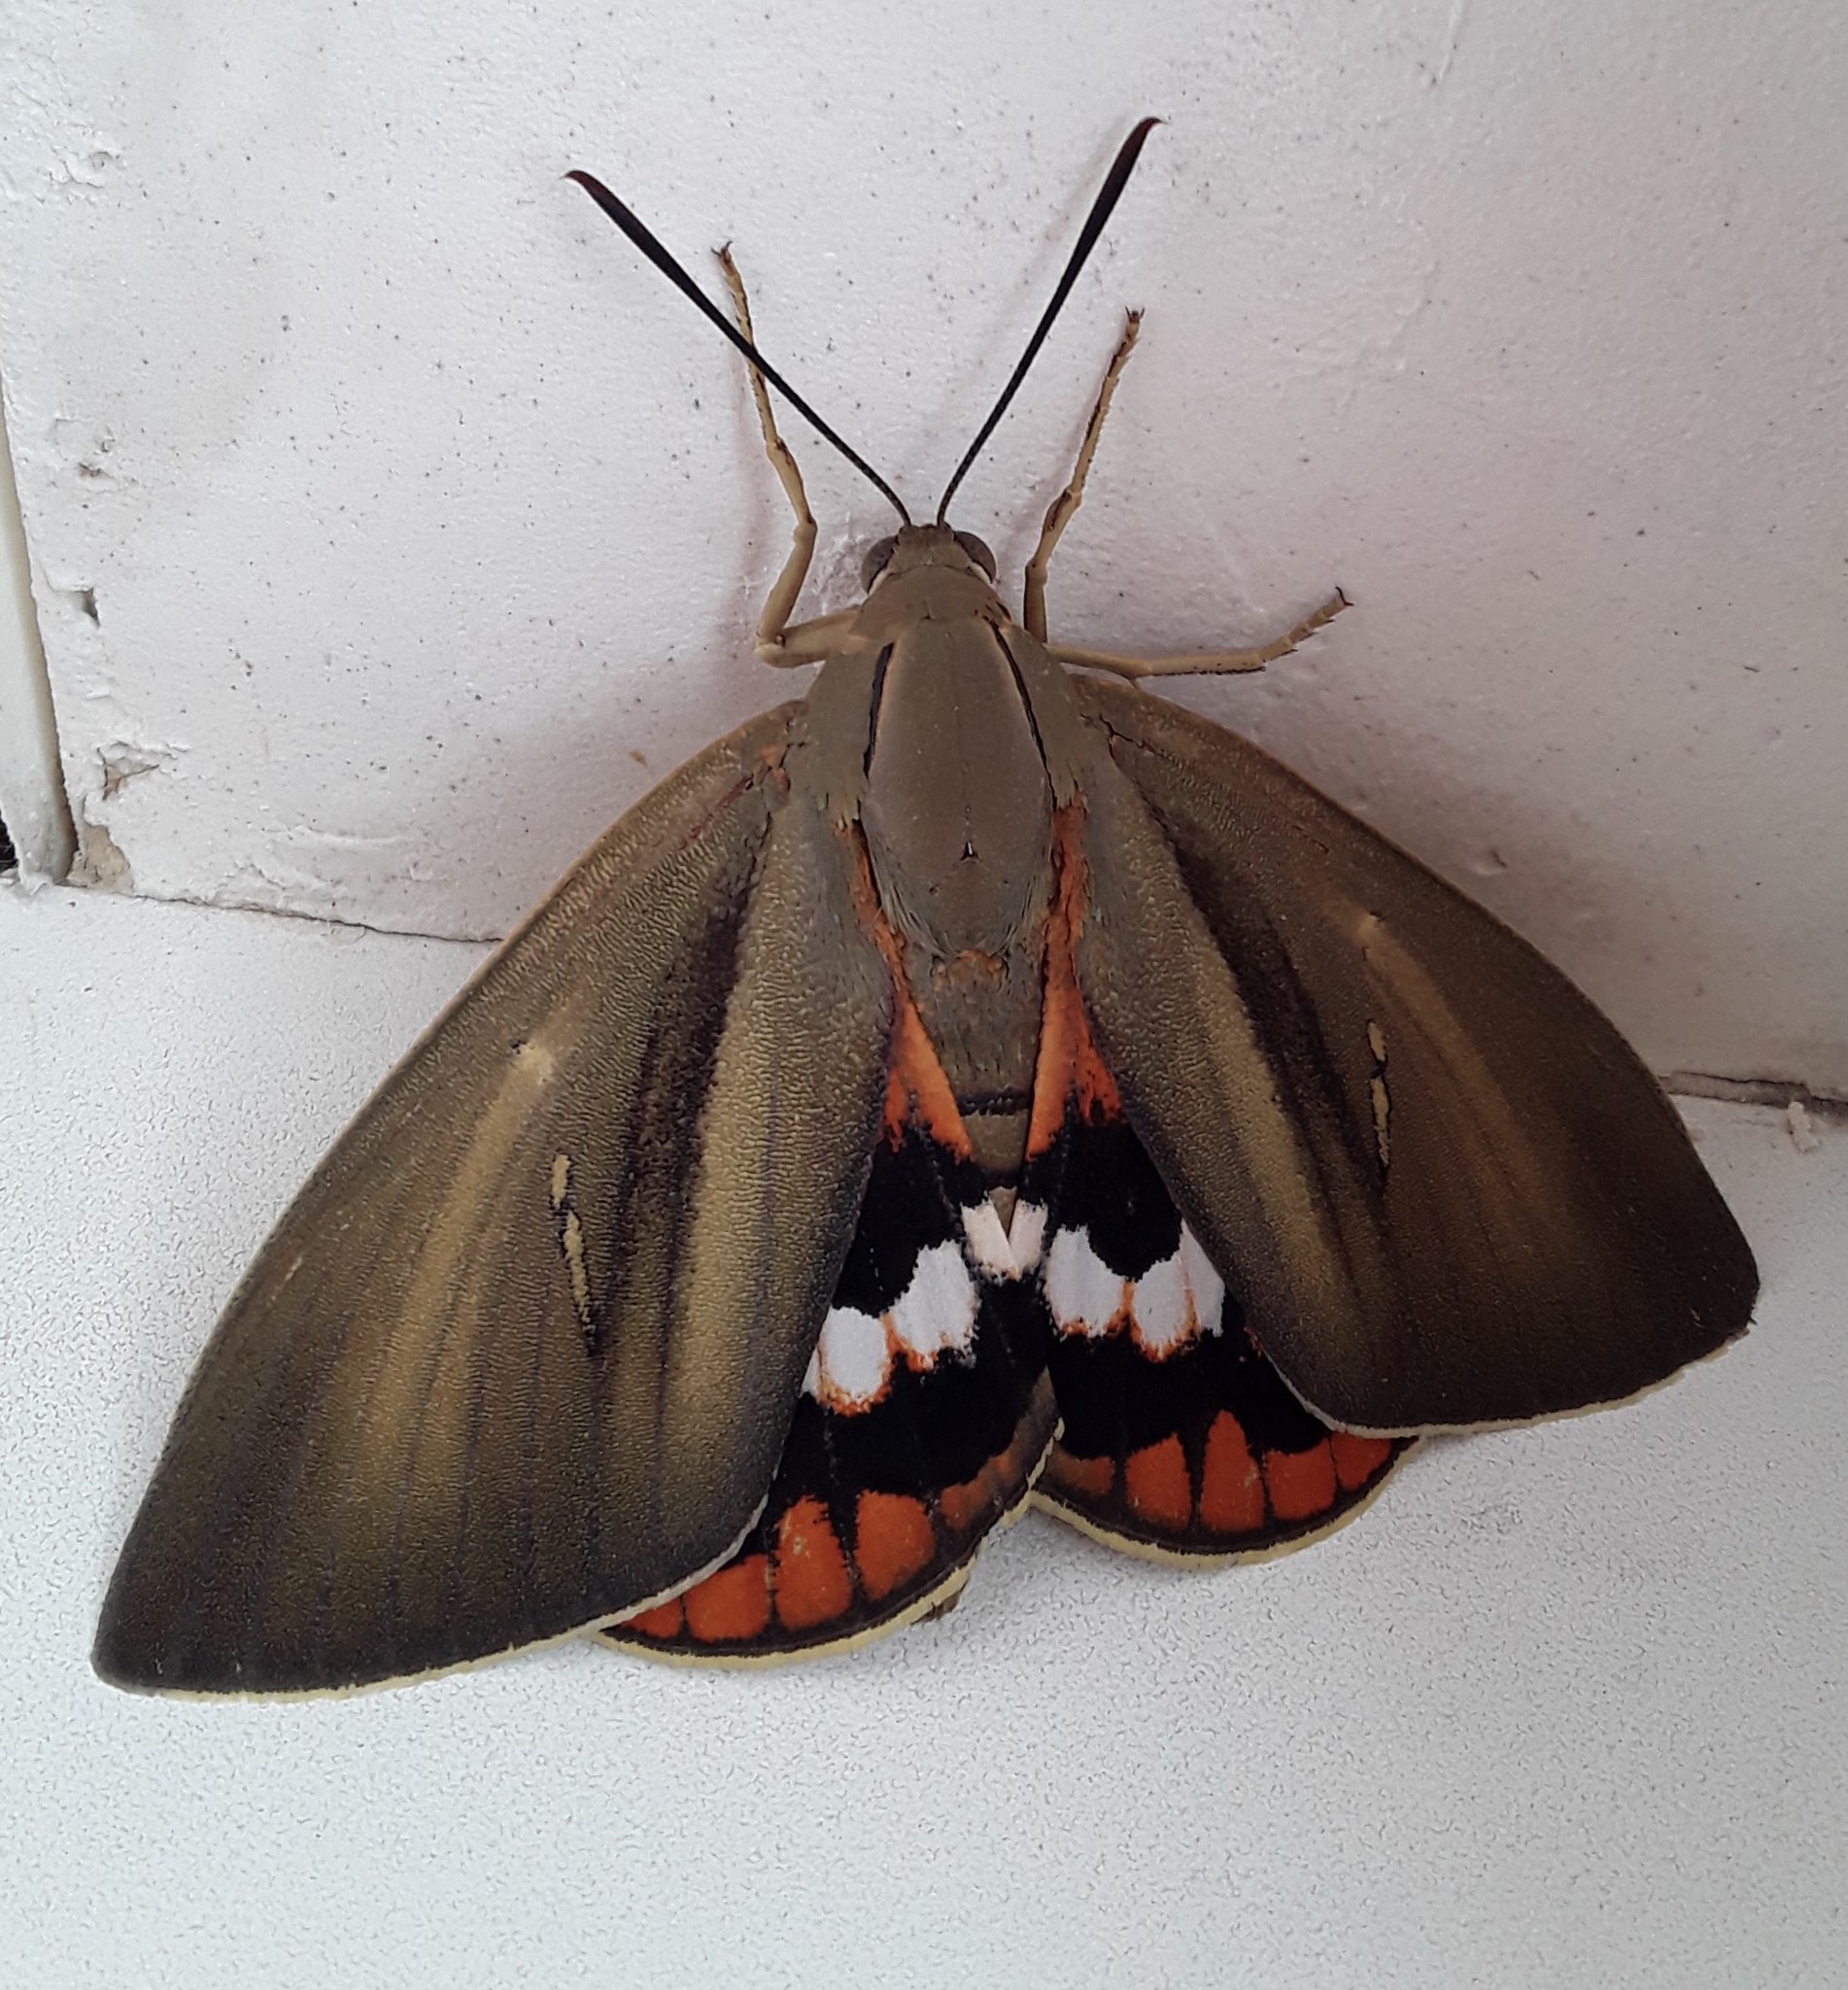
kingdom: Animalia
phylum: Arthropoda
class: Insecta
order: Lepidoptera
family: Castniidae
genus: Paysandisia
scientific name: Paysandisia archon
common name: Palm moth
